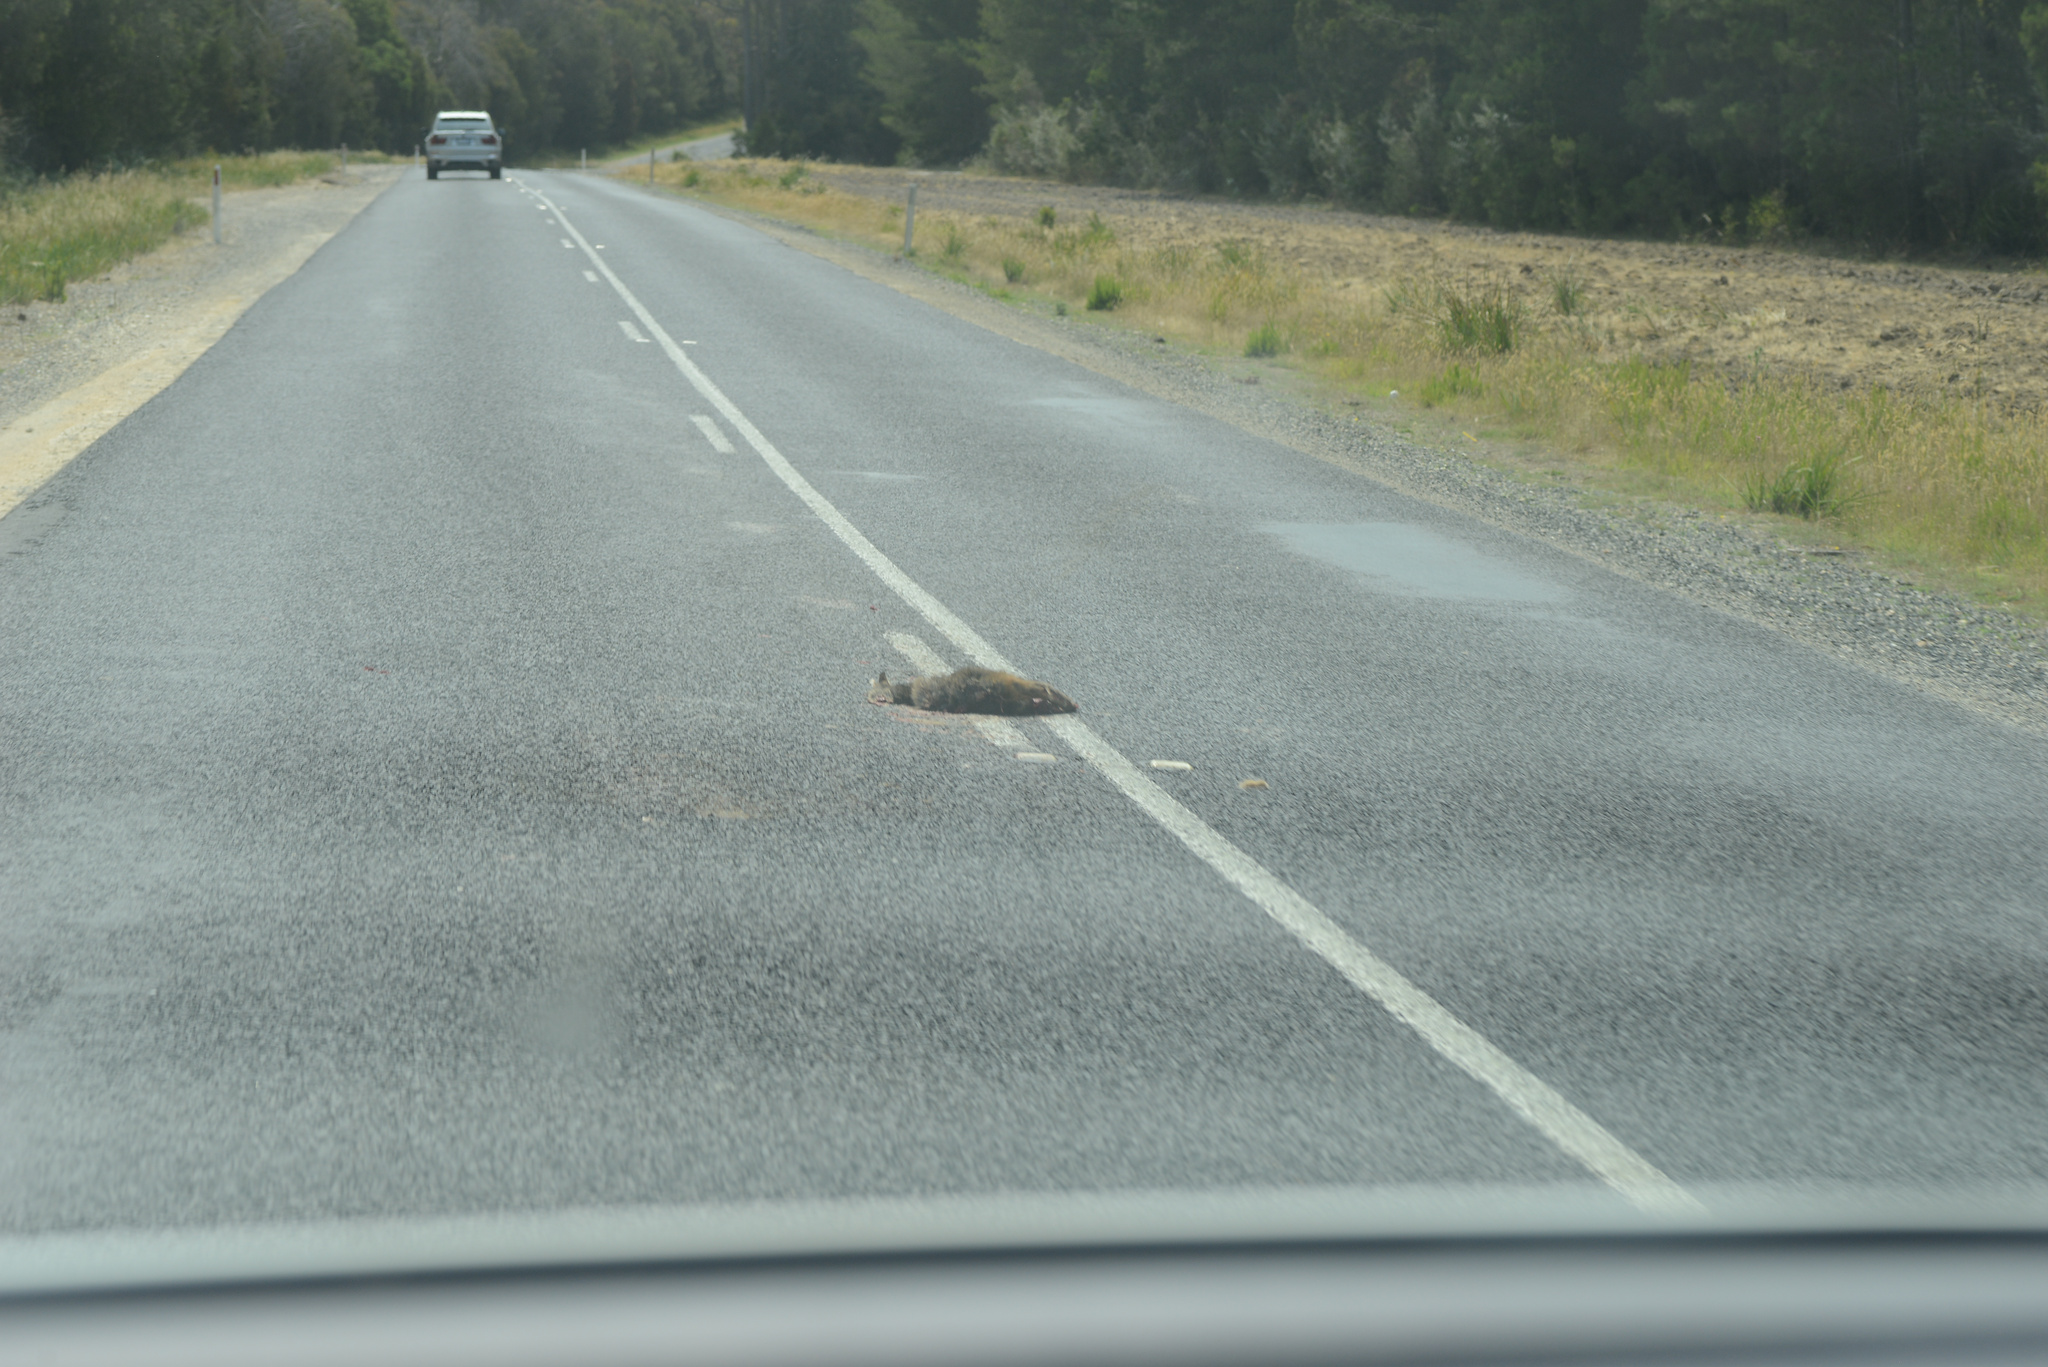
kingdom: Animalia
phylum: Chordata
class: Mammalia
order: Diprotodontia
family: Macropodidae
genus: Thylogale
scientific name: Thylogale billardierii
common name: Tasmanian pademelon
